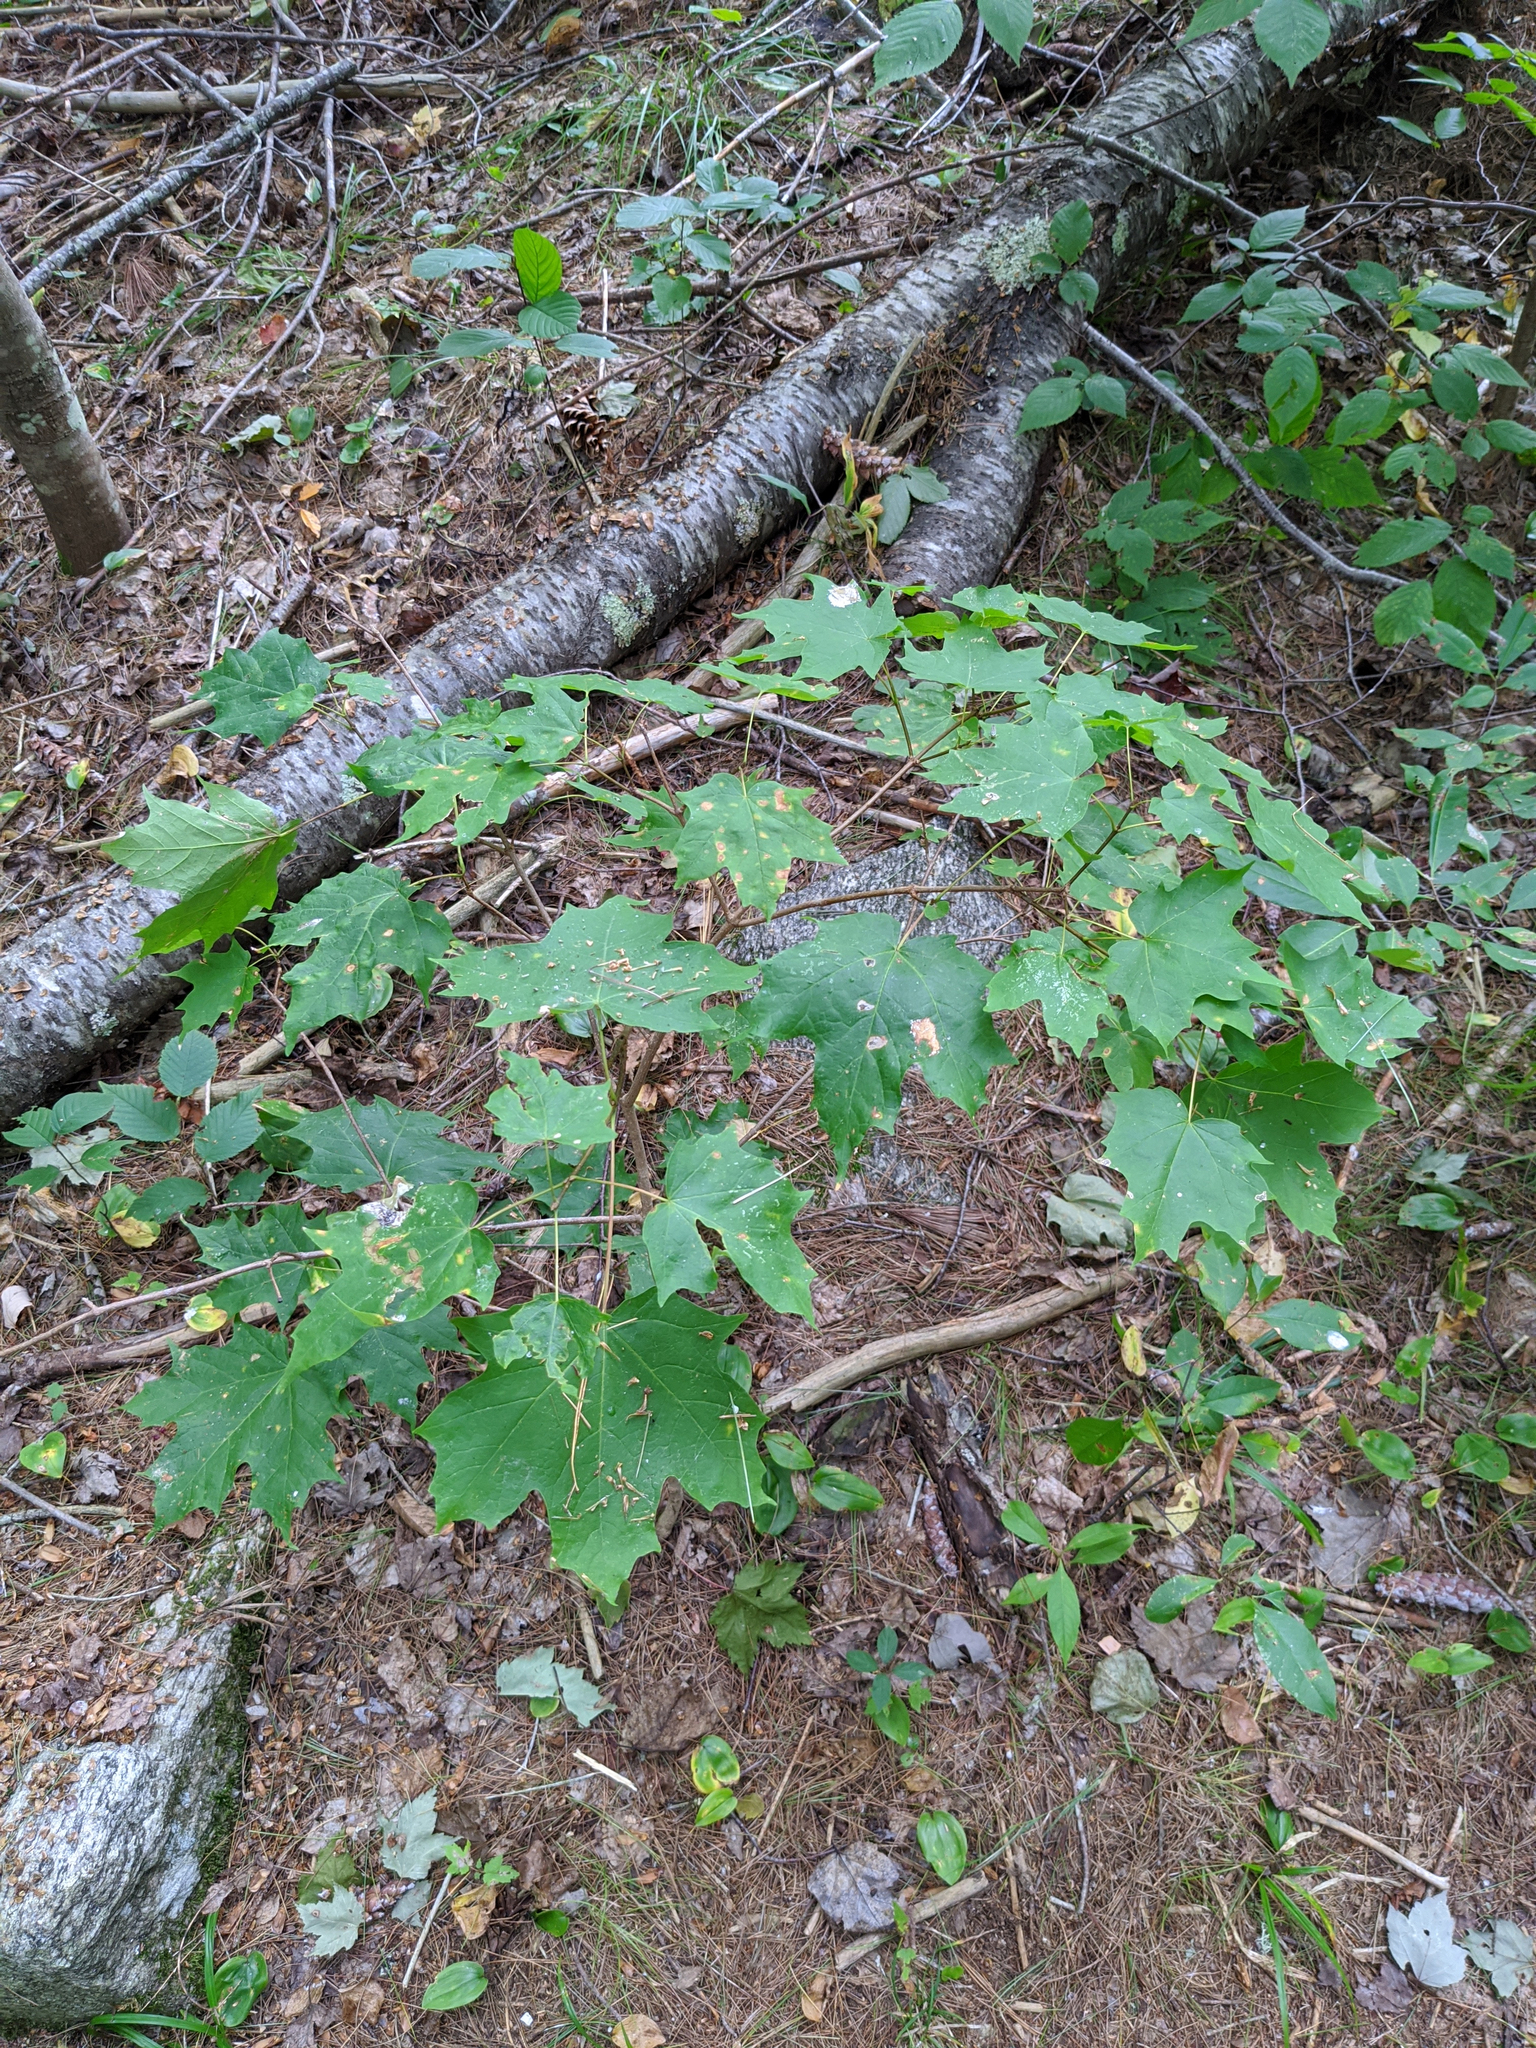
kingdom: Plantae
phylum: Tracheophyta
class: Magnoliopsida
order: Sapindales
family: Sapindaceae
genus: Acer
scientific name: Acer saccharum
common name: Sugar maple
